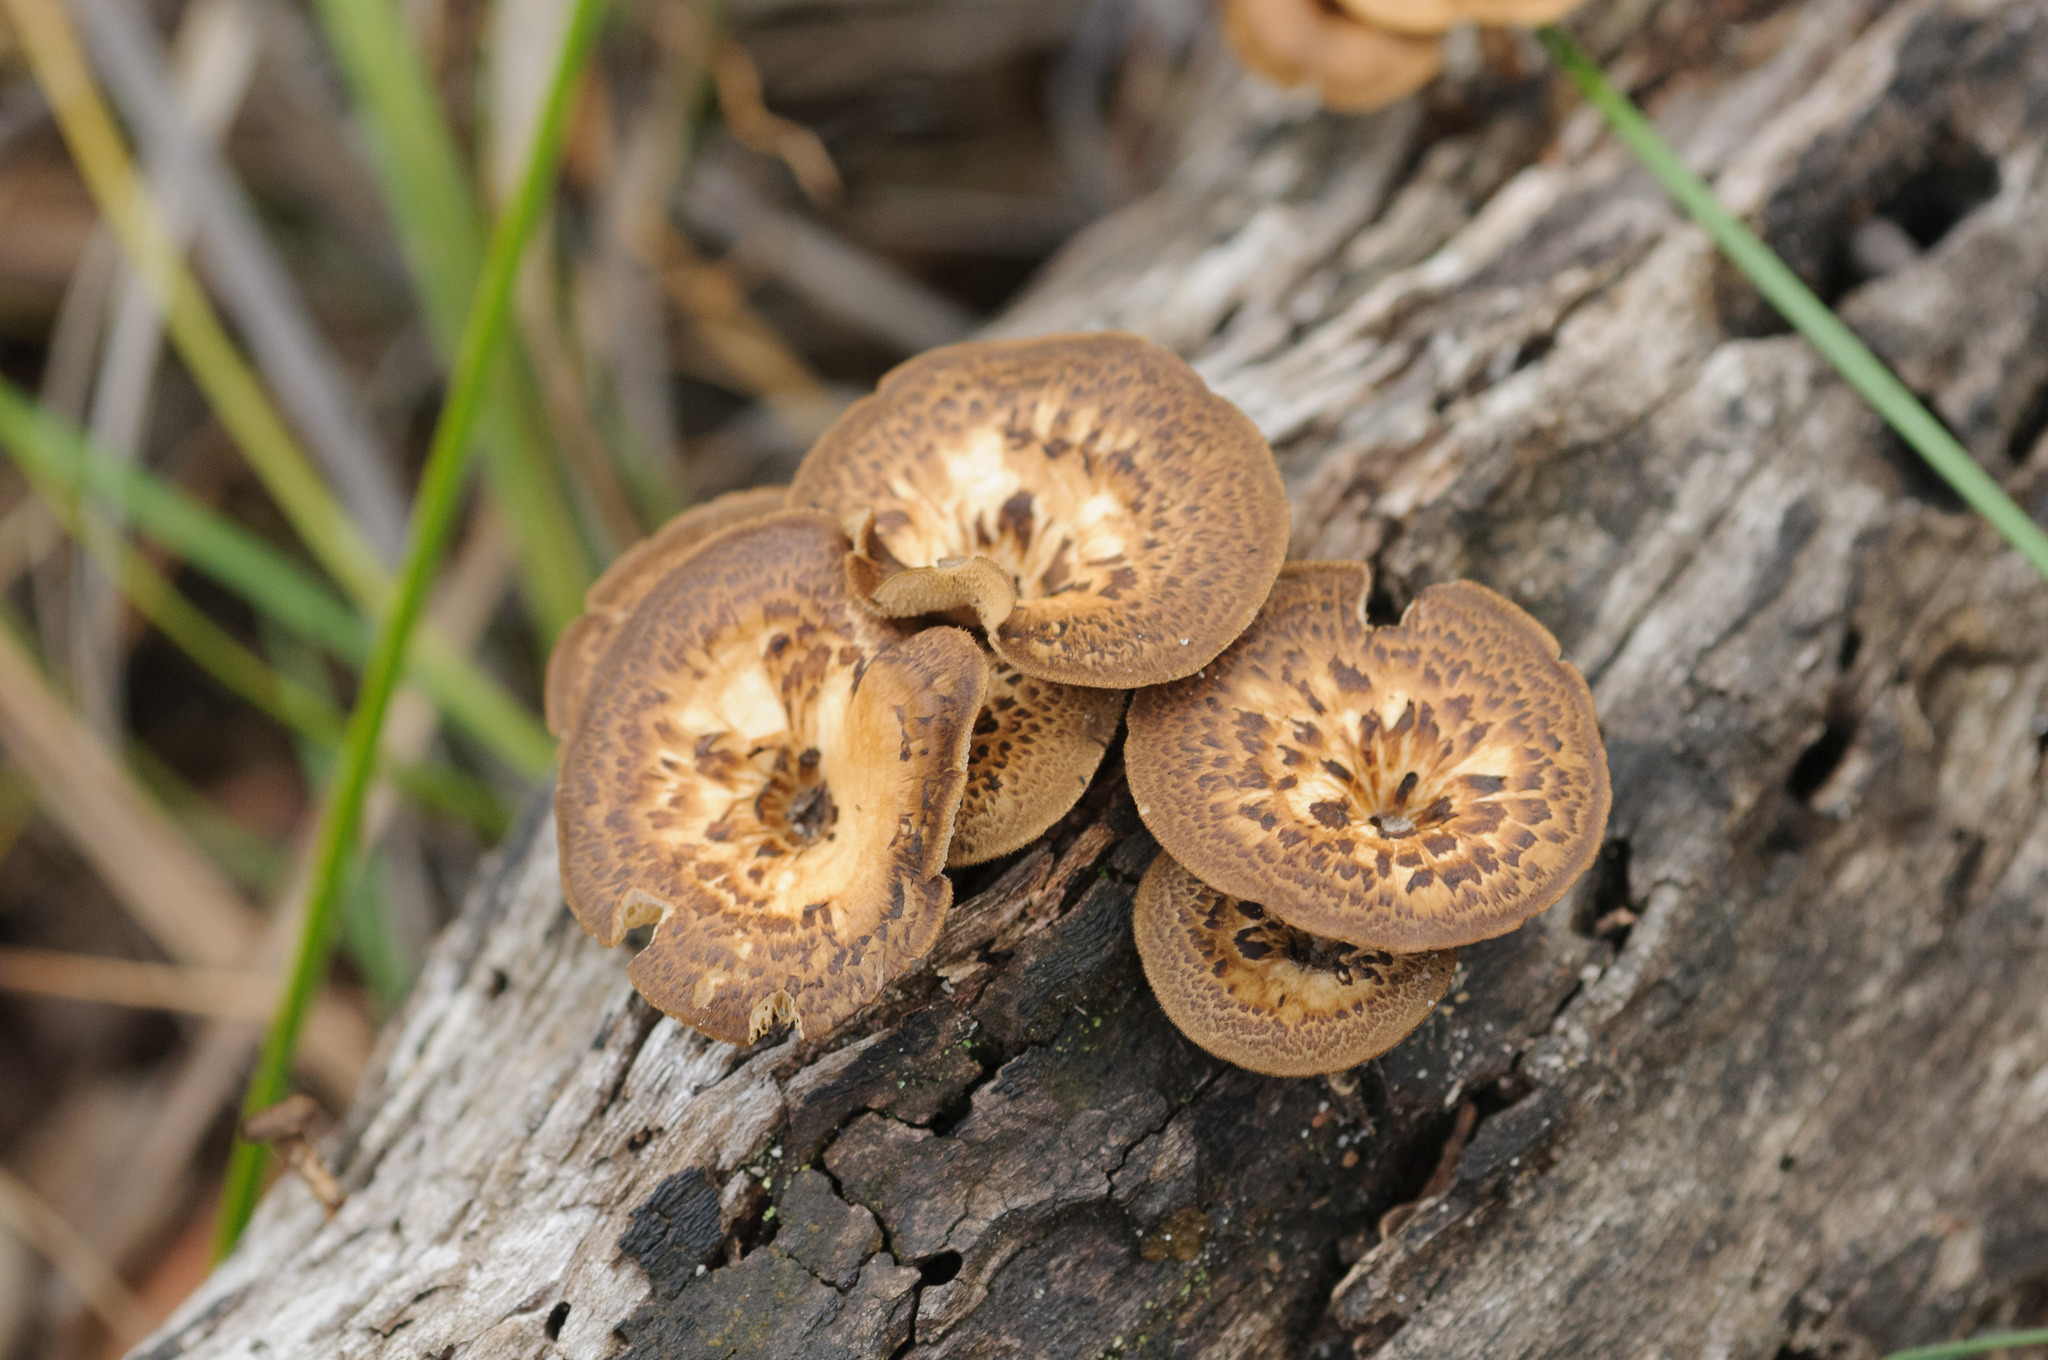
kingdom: Fungi
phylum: Basidiomycota
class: Agaricomycetes
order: Polyporales
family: Polyporaceae
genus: Lentinus
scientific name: Lentinus arcularius
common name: Spring polypore
